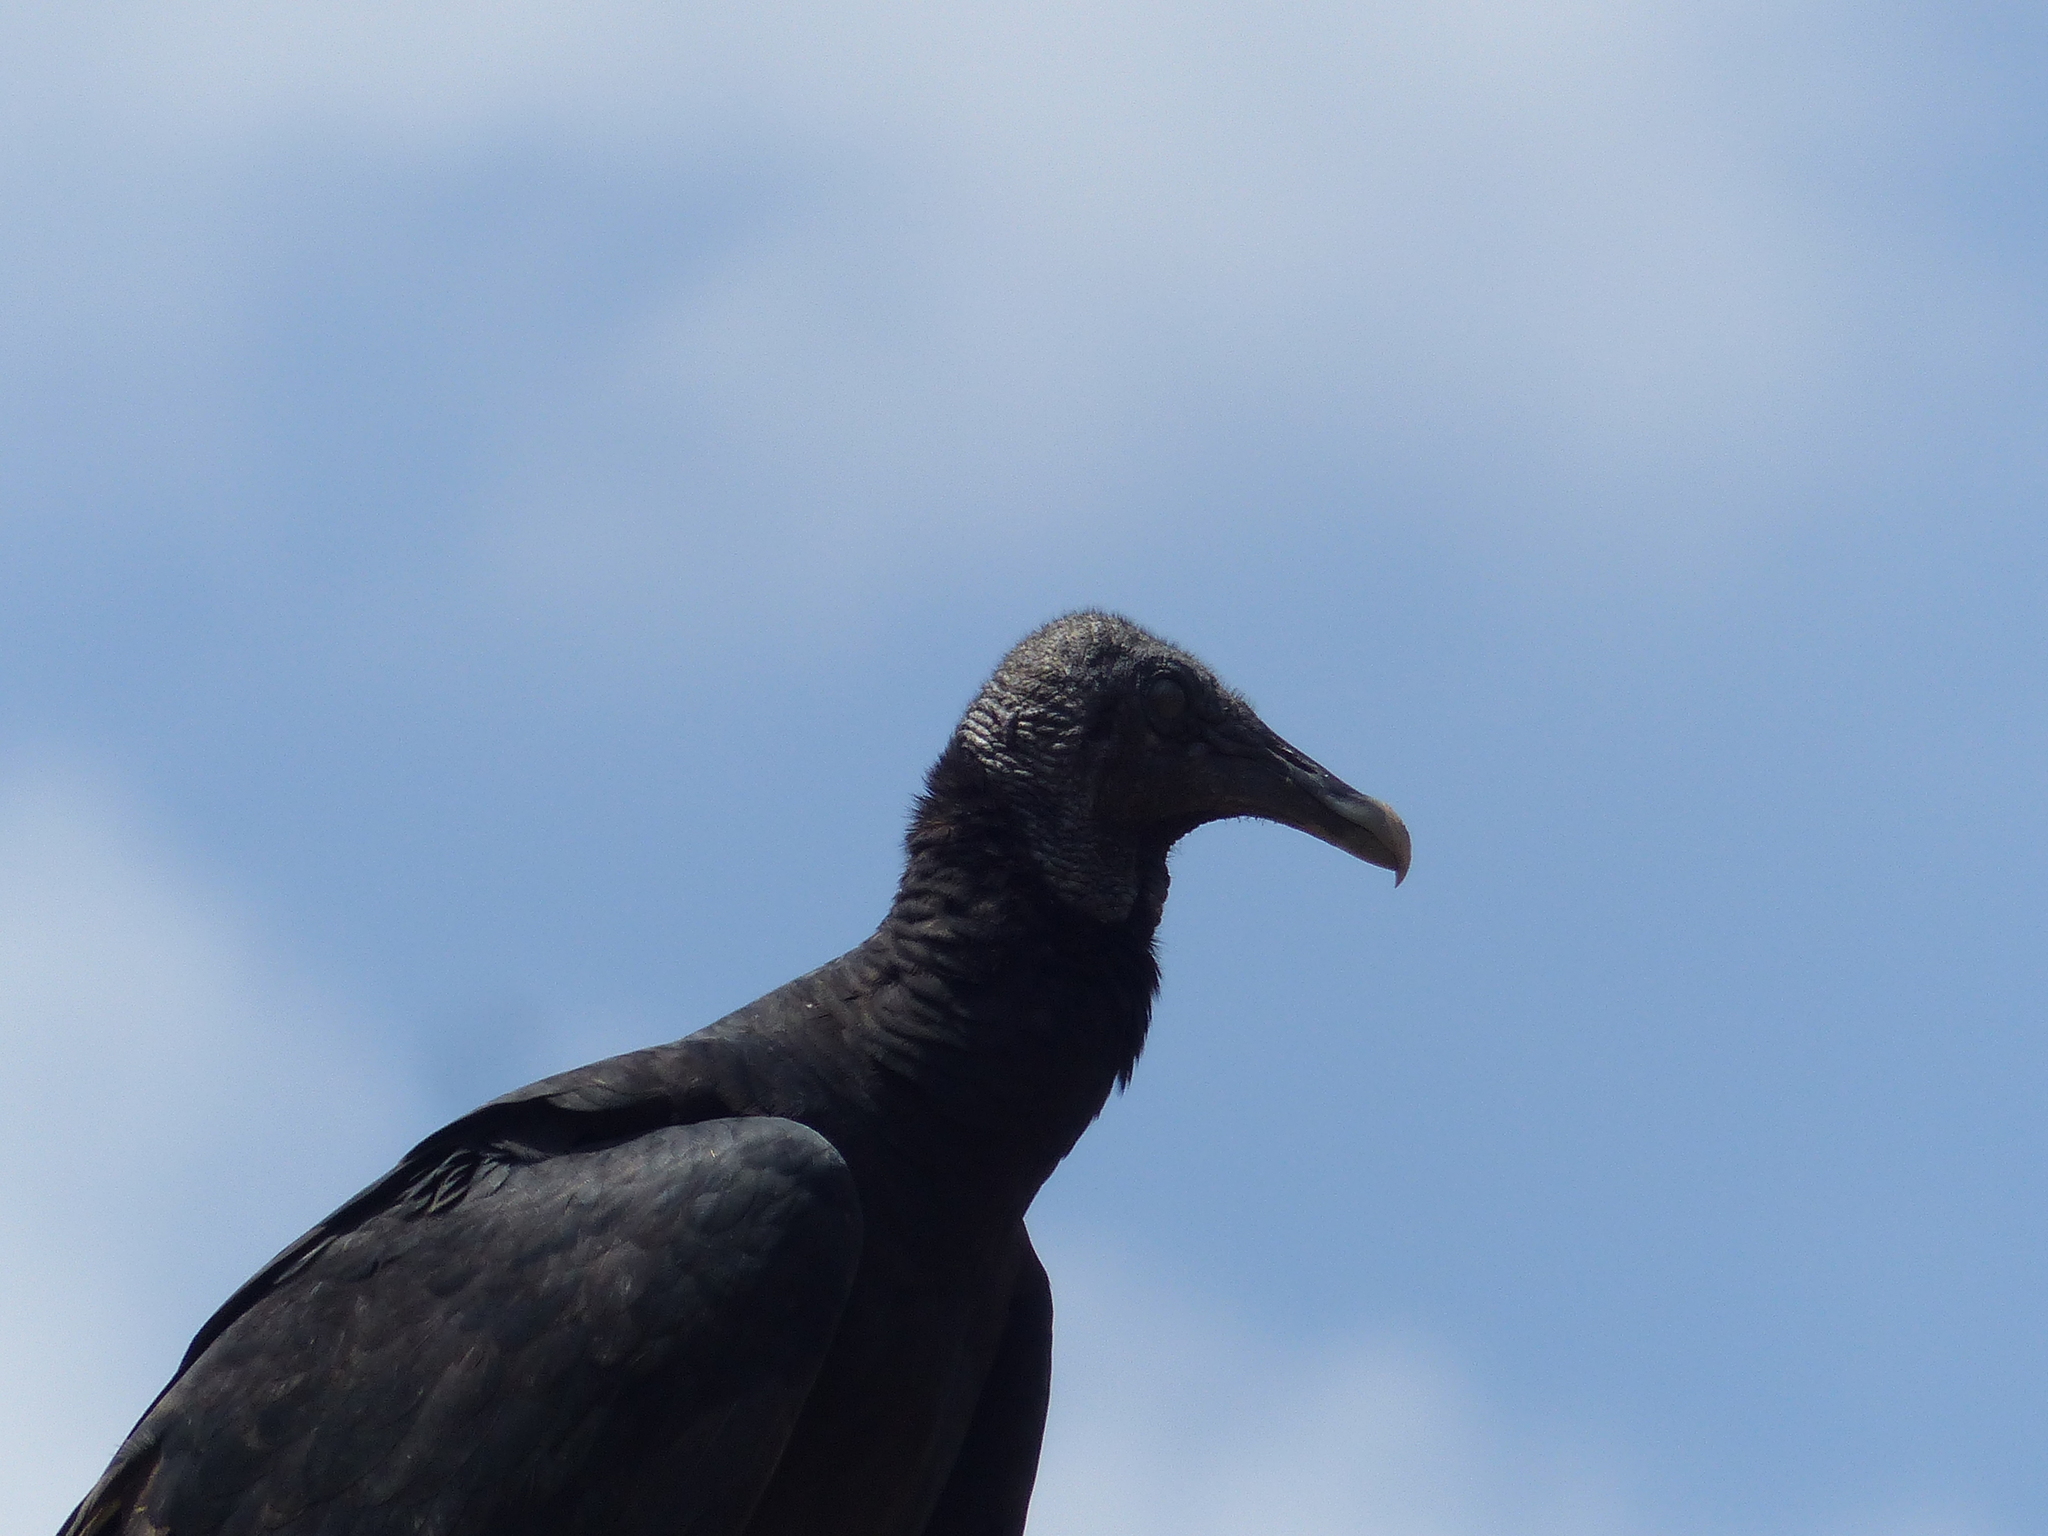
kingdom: Animalia
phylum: Chordata
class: Aves
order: Accipitriformes
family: Cathartidae
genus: Coragyps
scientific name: Coragyps atratus
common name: Black vulture
